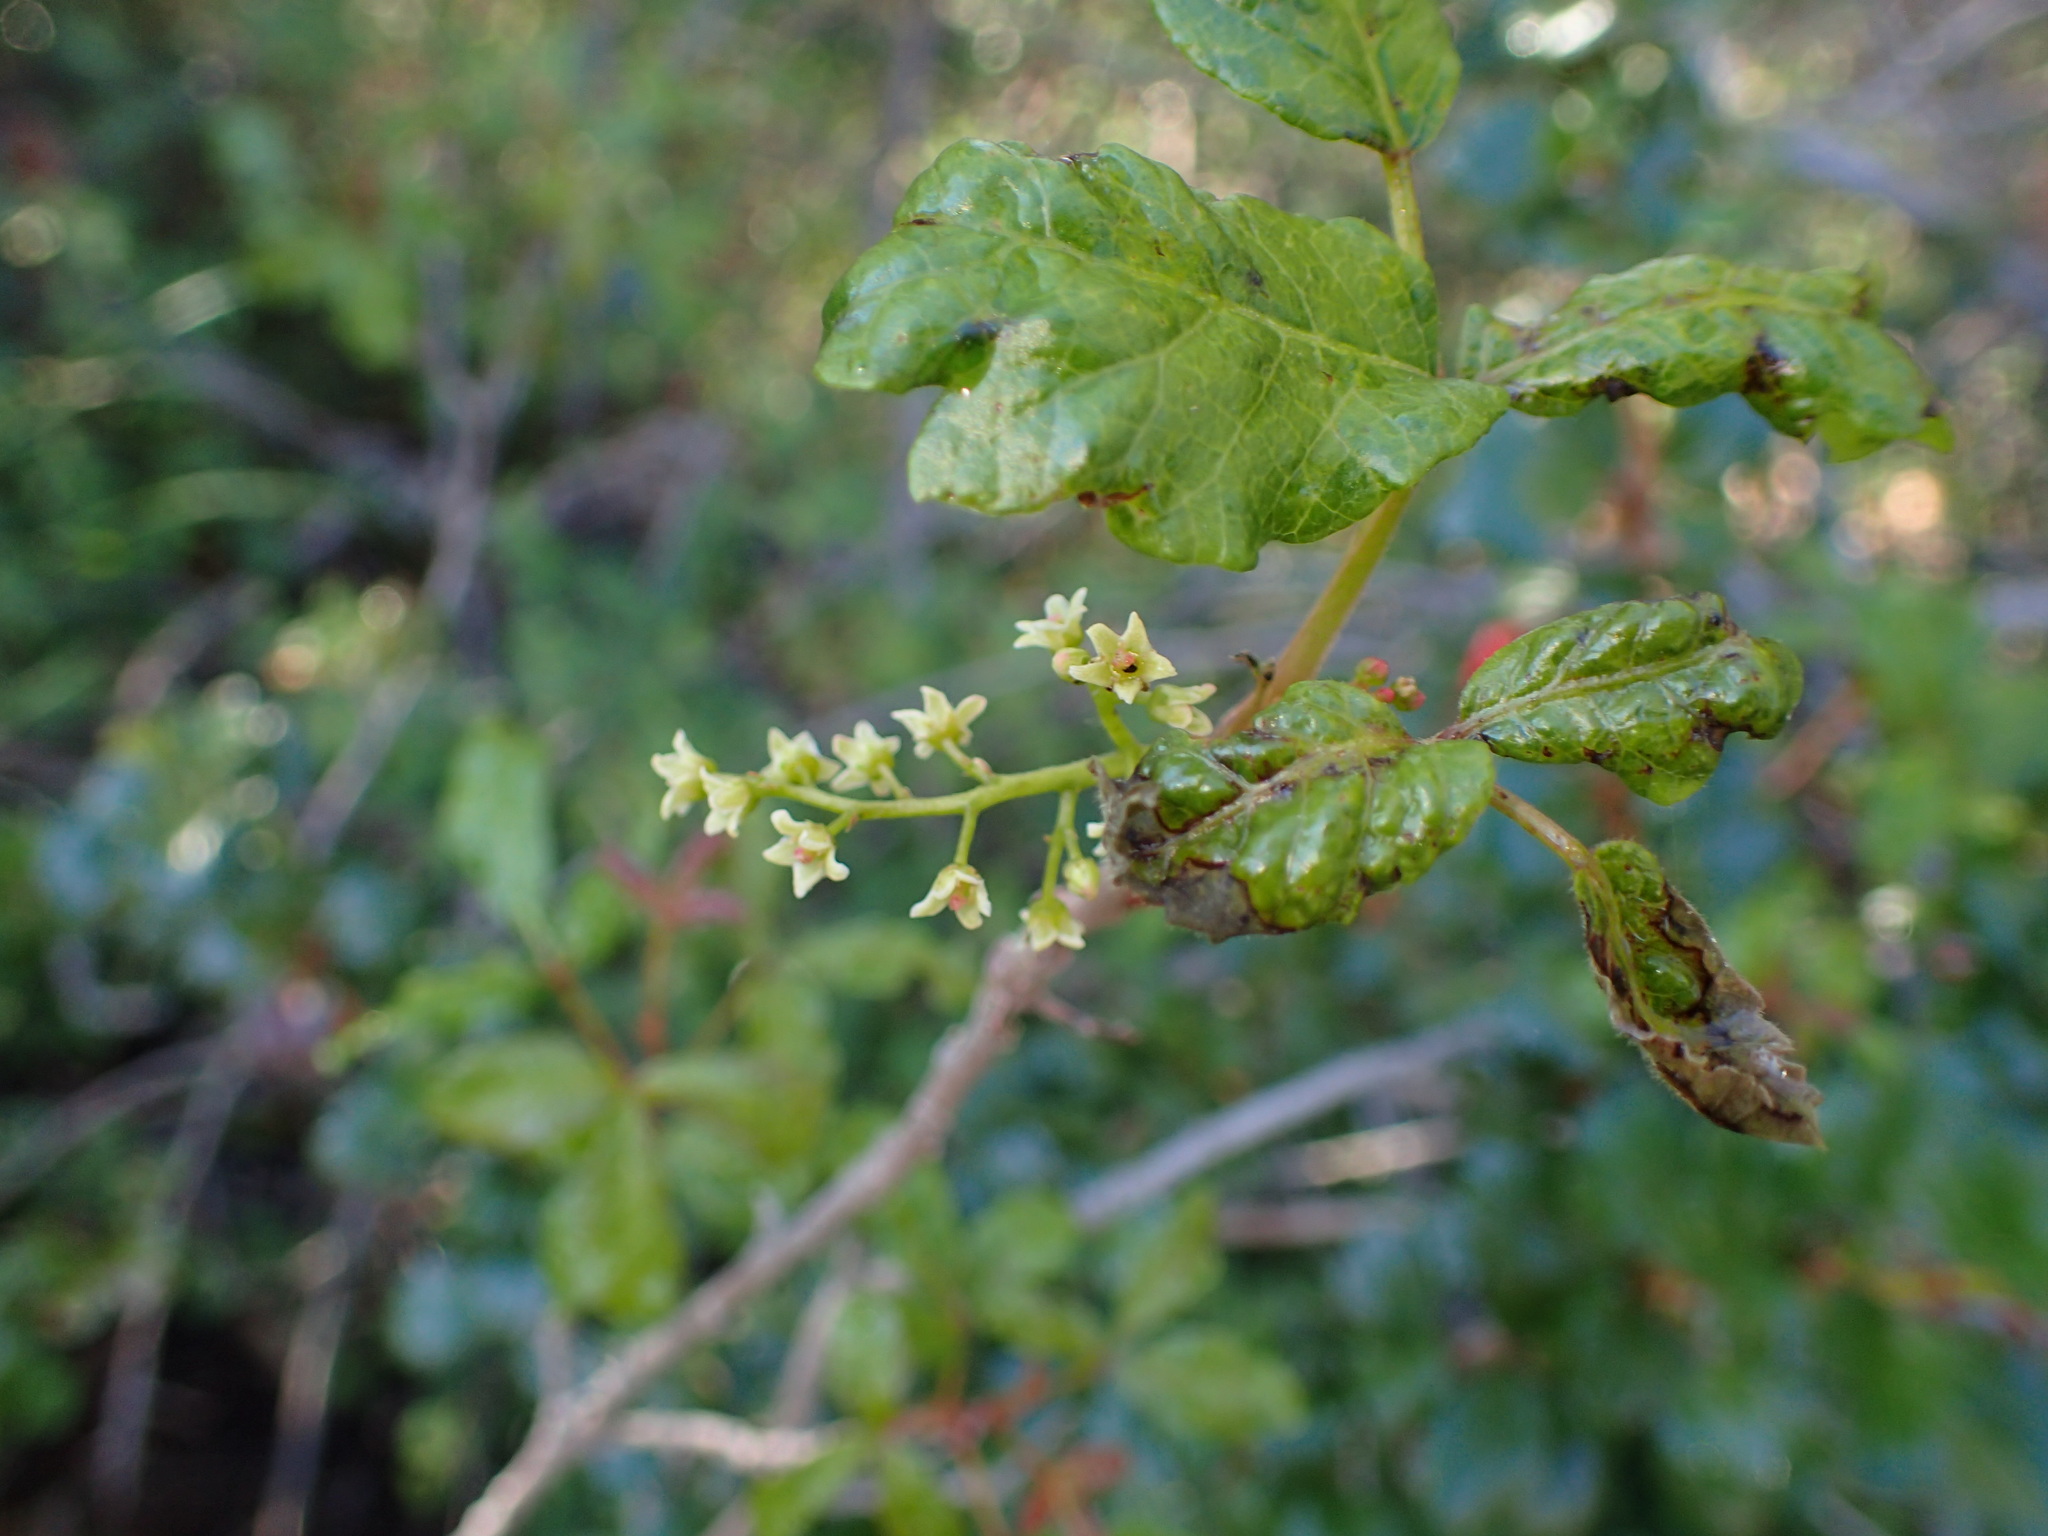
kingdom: Plantae
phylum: Tracheophyta
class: Magnoliopsida
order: Sapindales
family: Anacardiaceae
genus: Toxicodendron
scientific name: Toxicodendron diversilobum
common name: Pacific poison-oak
